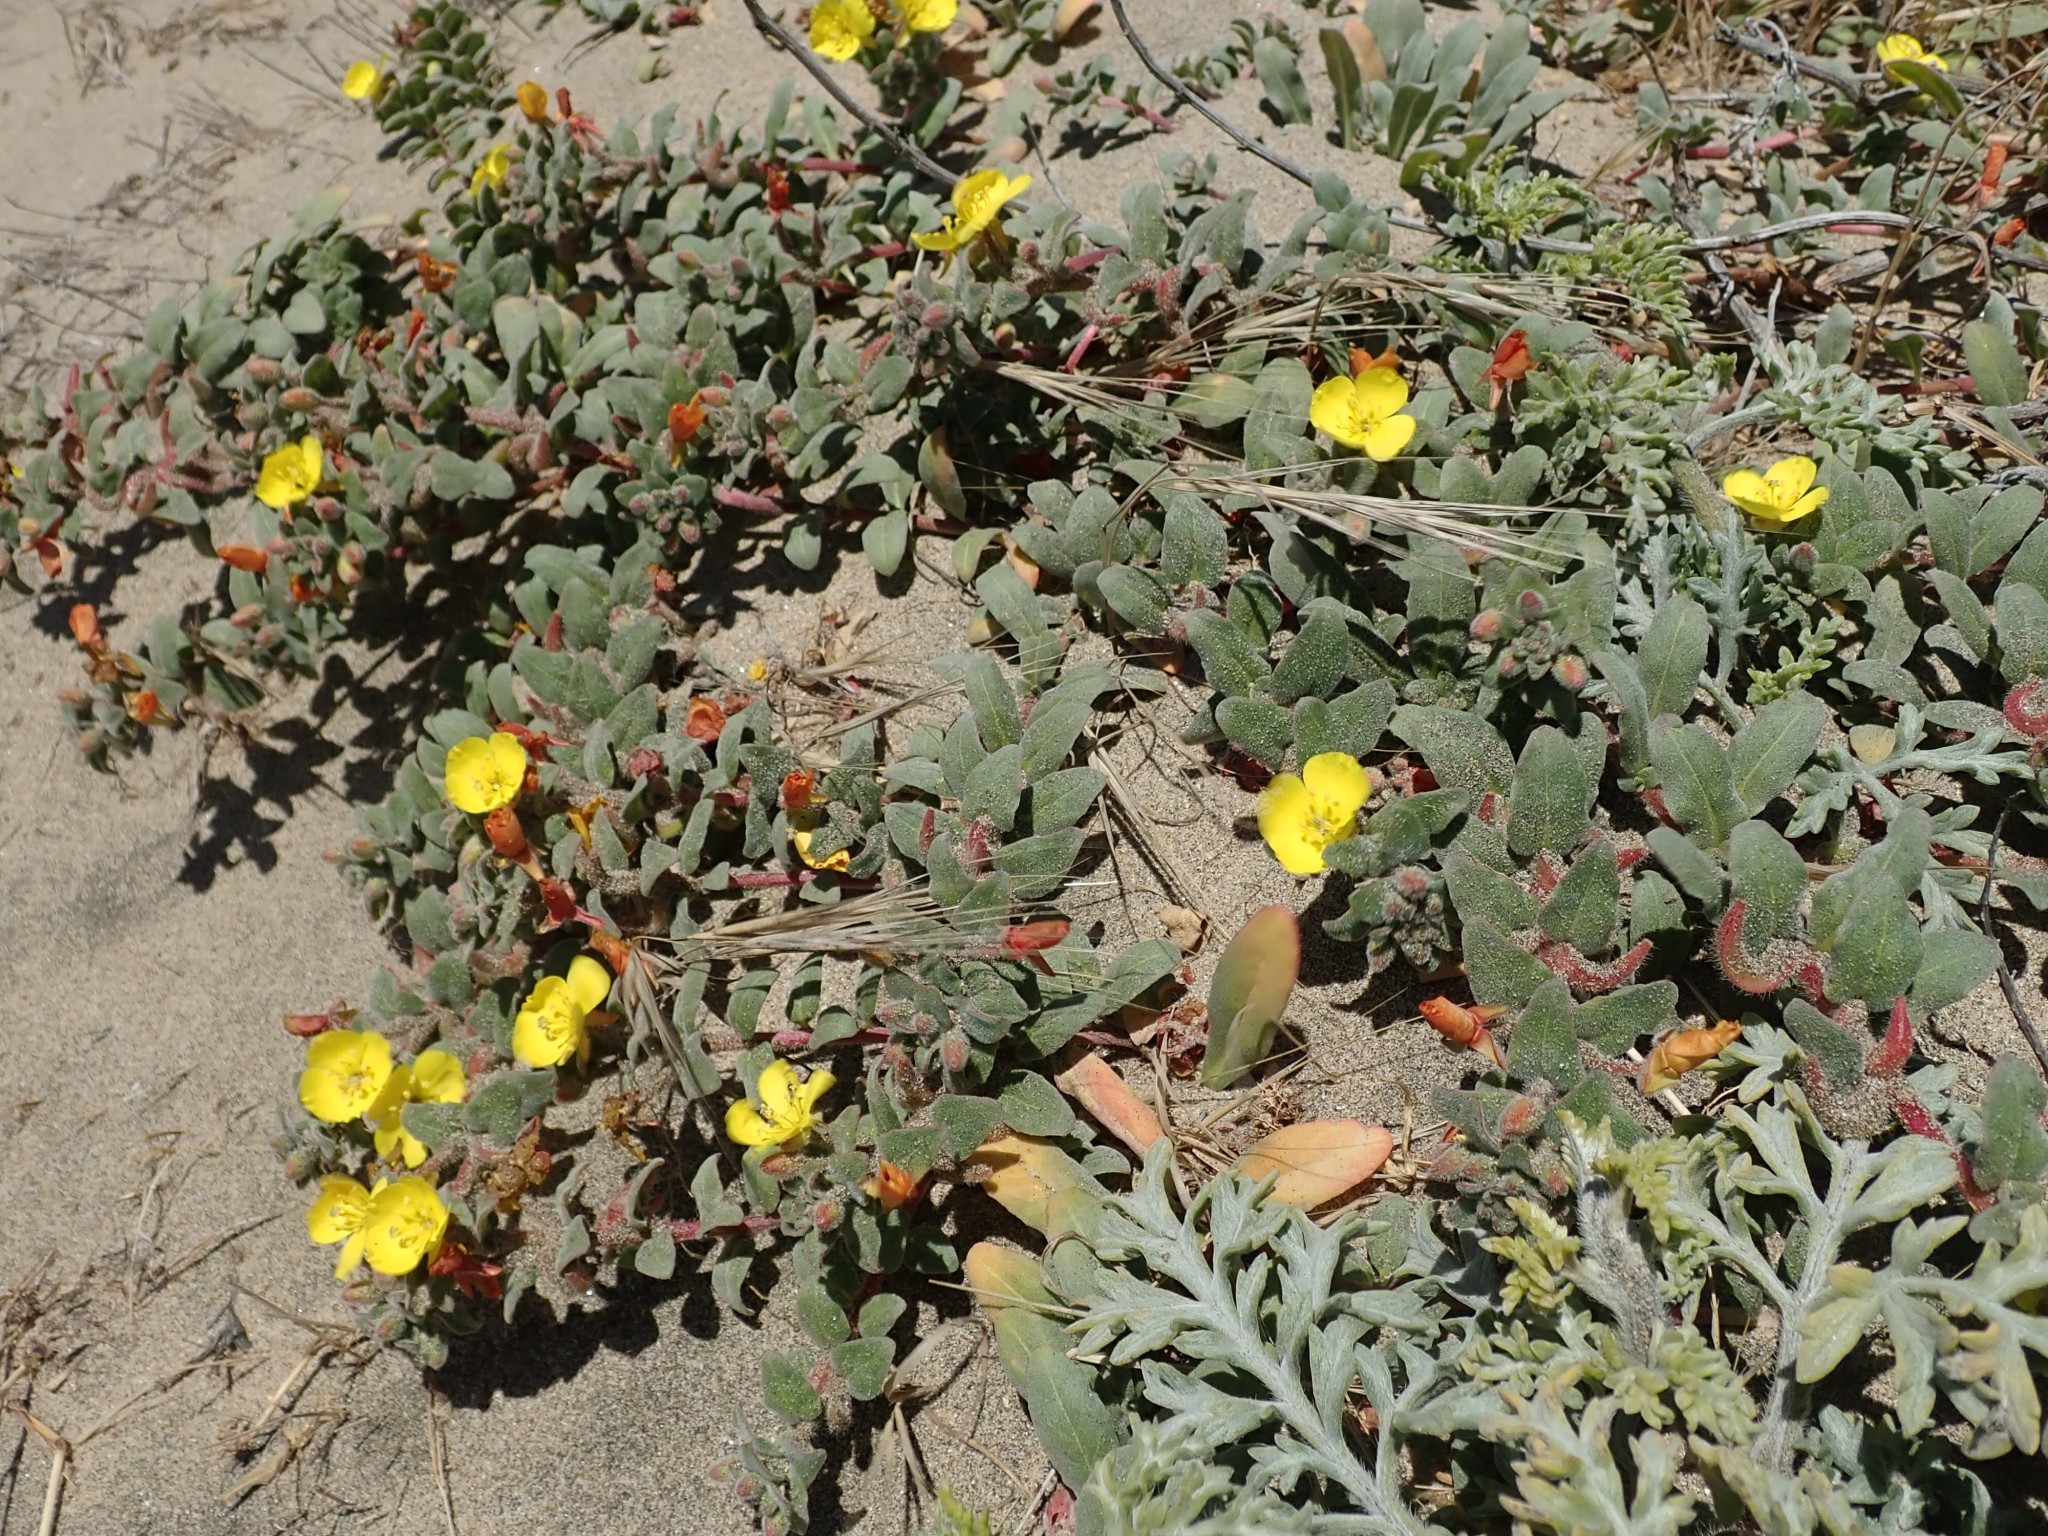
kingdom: Plantae
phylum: Tracheophyta
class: Magnoliopsida
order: Myrtales
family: Onagraceae
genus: Camissoniopsis
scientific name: Camissoniopsis cheiranthifolia
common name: Beach suncup
